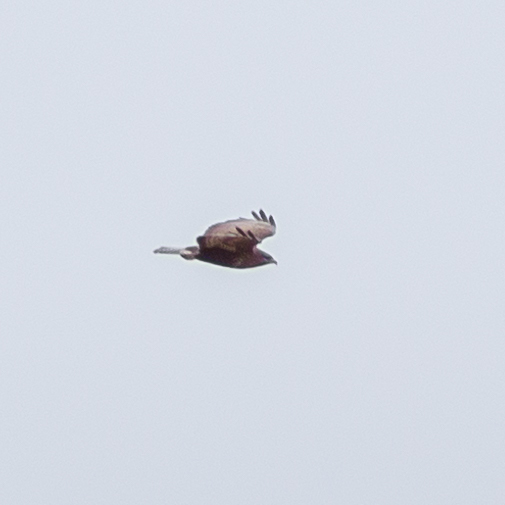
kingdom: Animalia
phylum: Chordata
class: Aves
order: Accipitriformes
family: Accipitridae
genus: Buteo
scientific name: Buteo buteo
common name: Common buzzard
